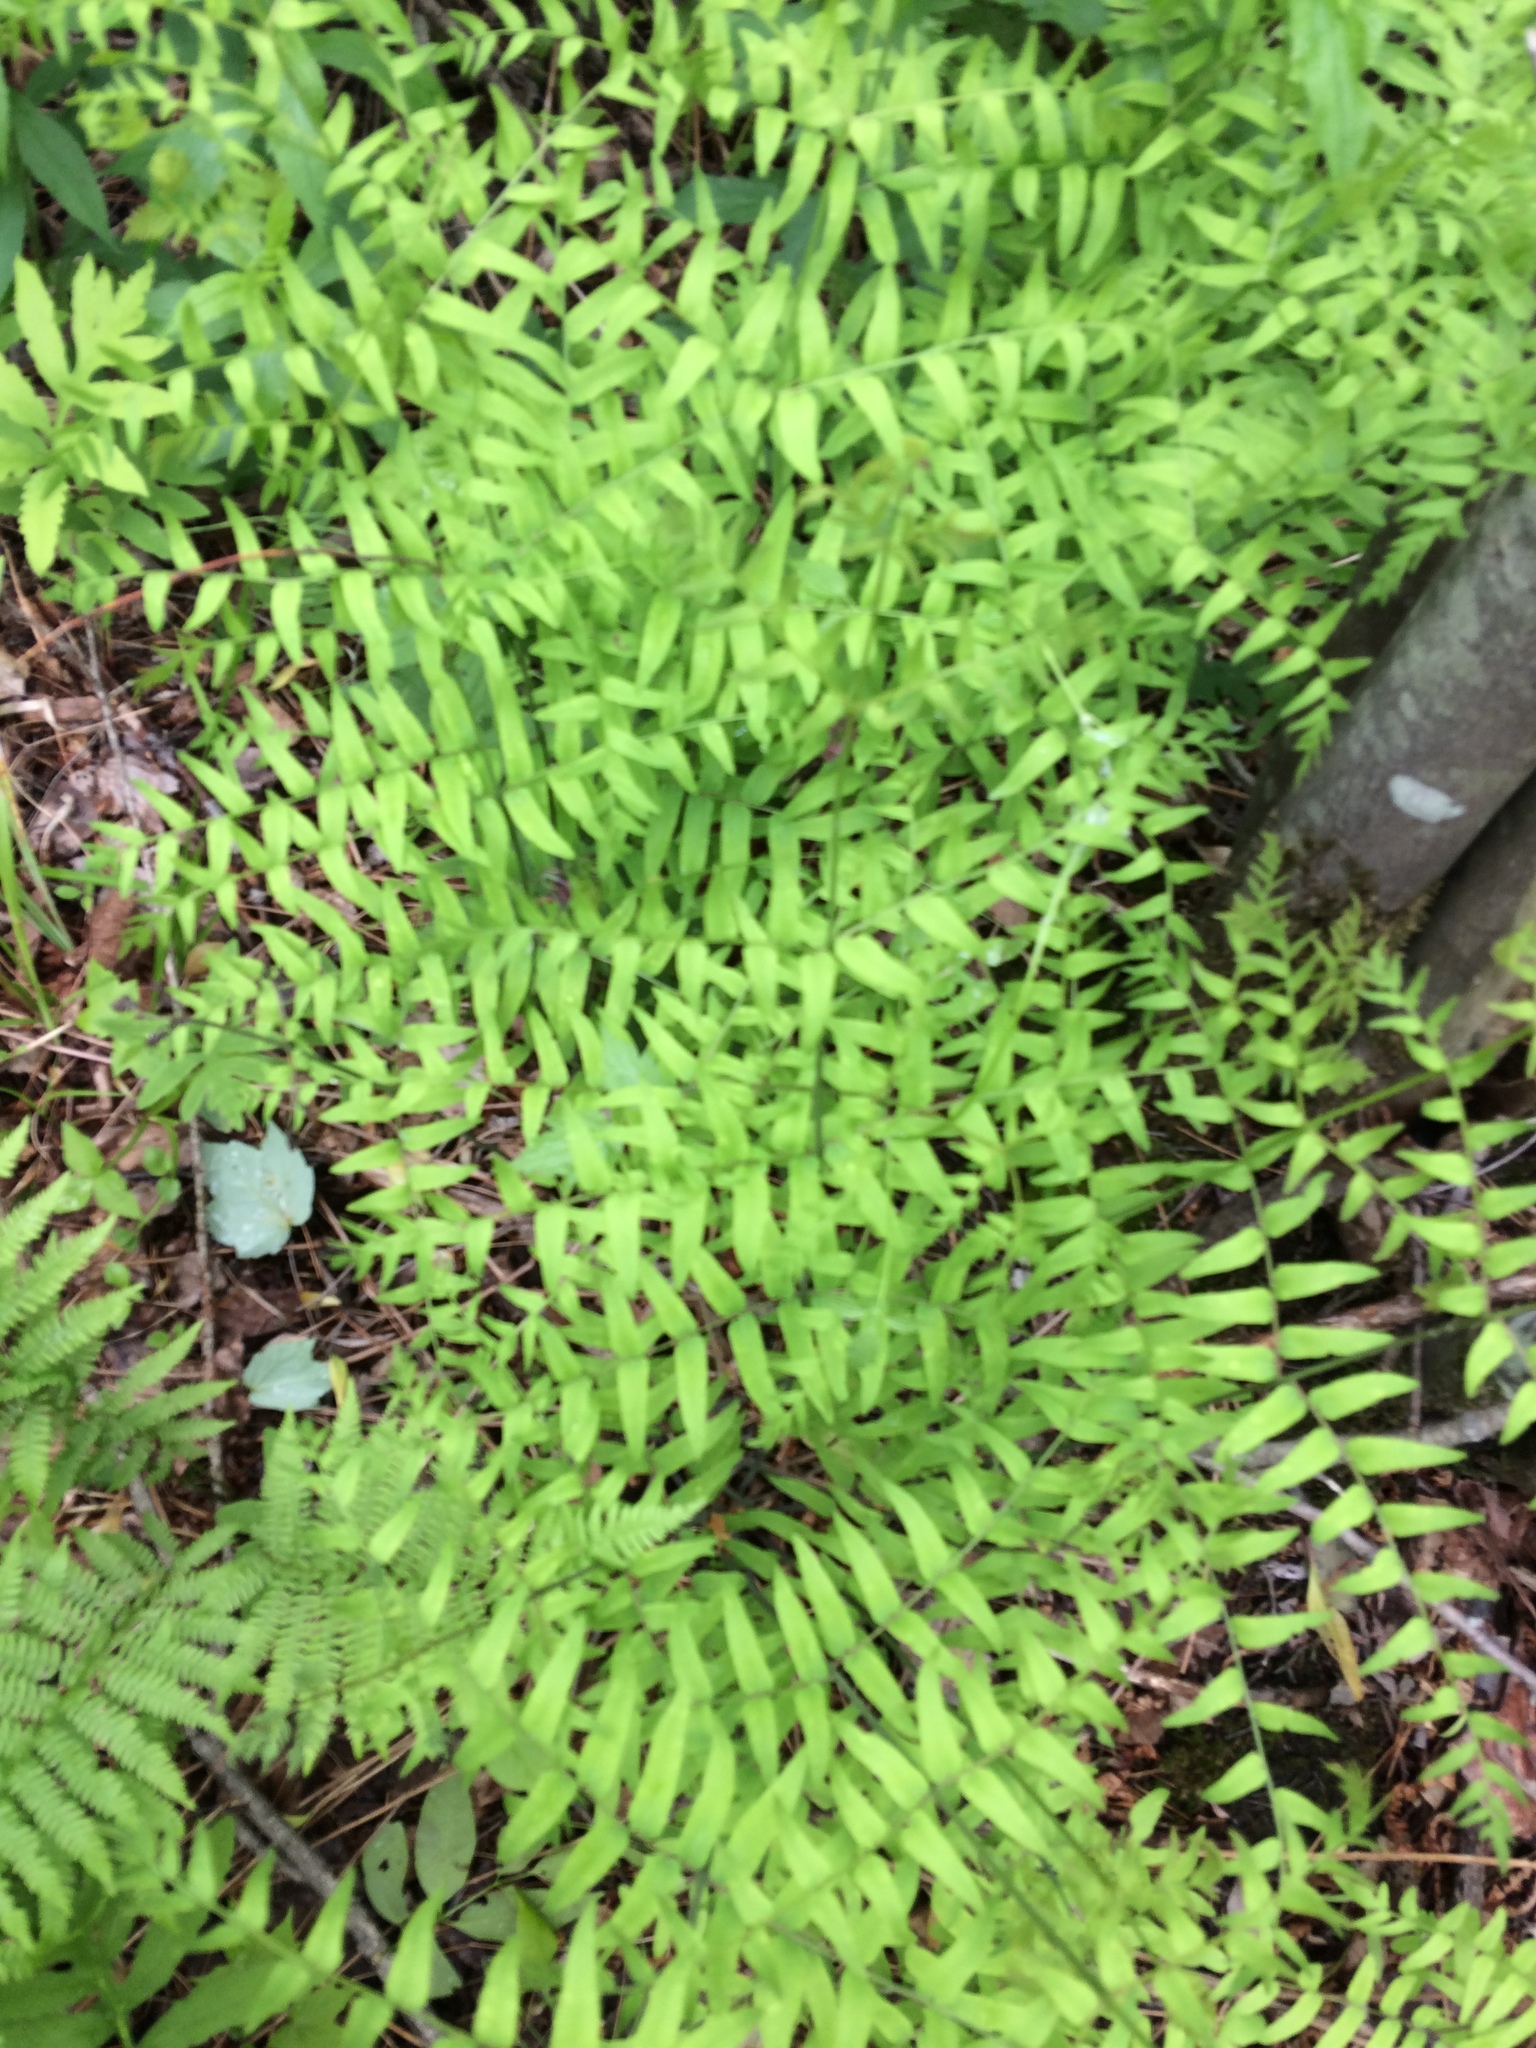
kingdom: Plantae
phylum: Tracheophyta
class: Polypodiopsida
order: Osmundales
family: Osmundaceae
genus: Osmunda
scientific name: Osmunda spectabilis
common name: American royal fern
